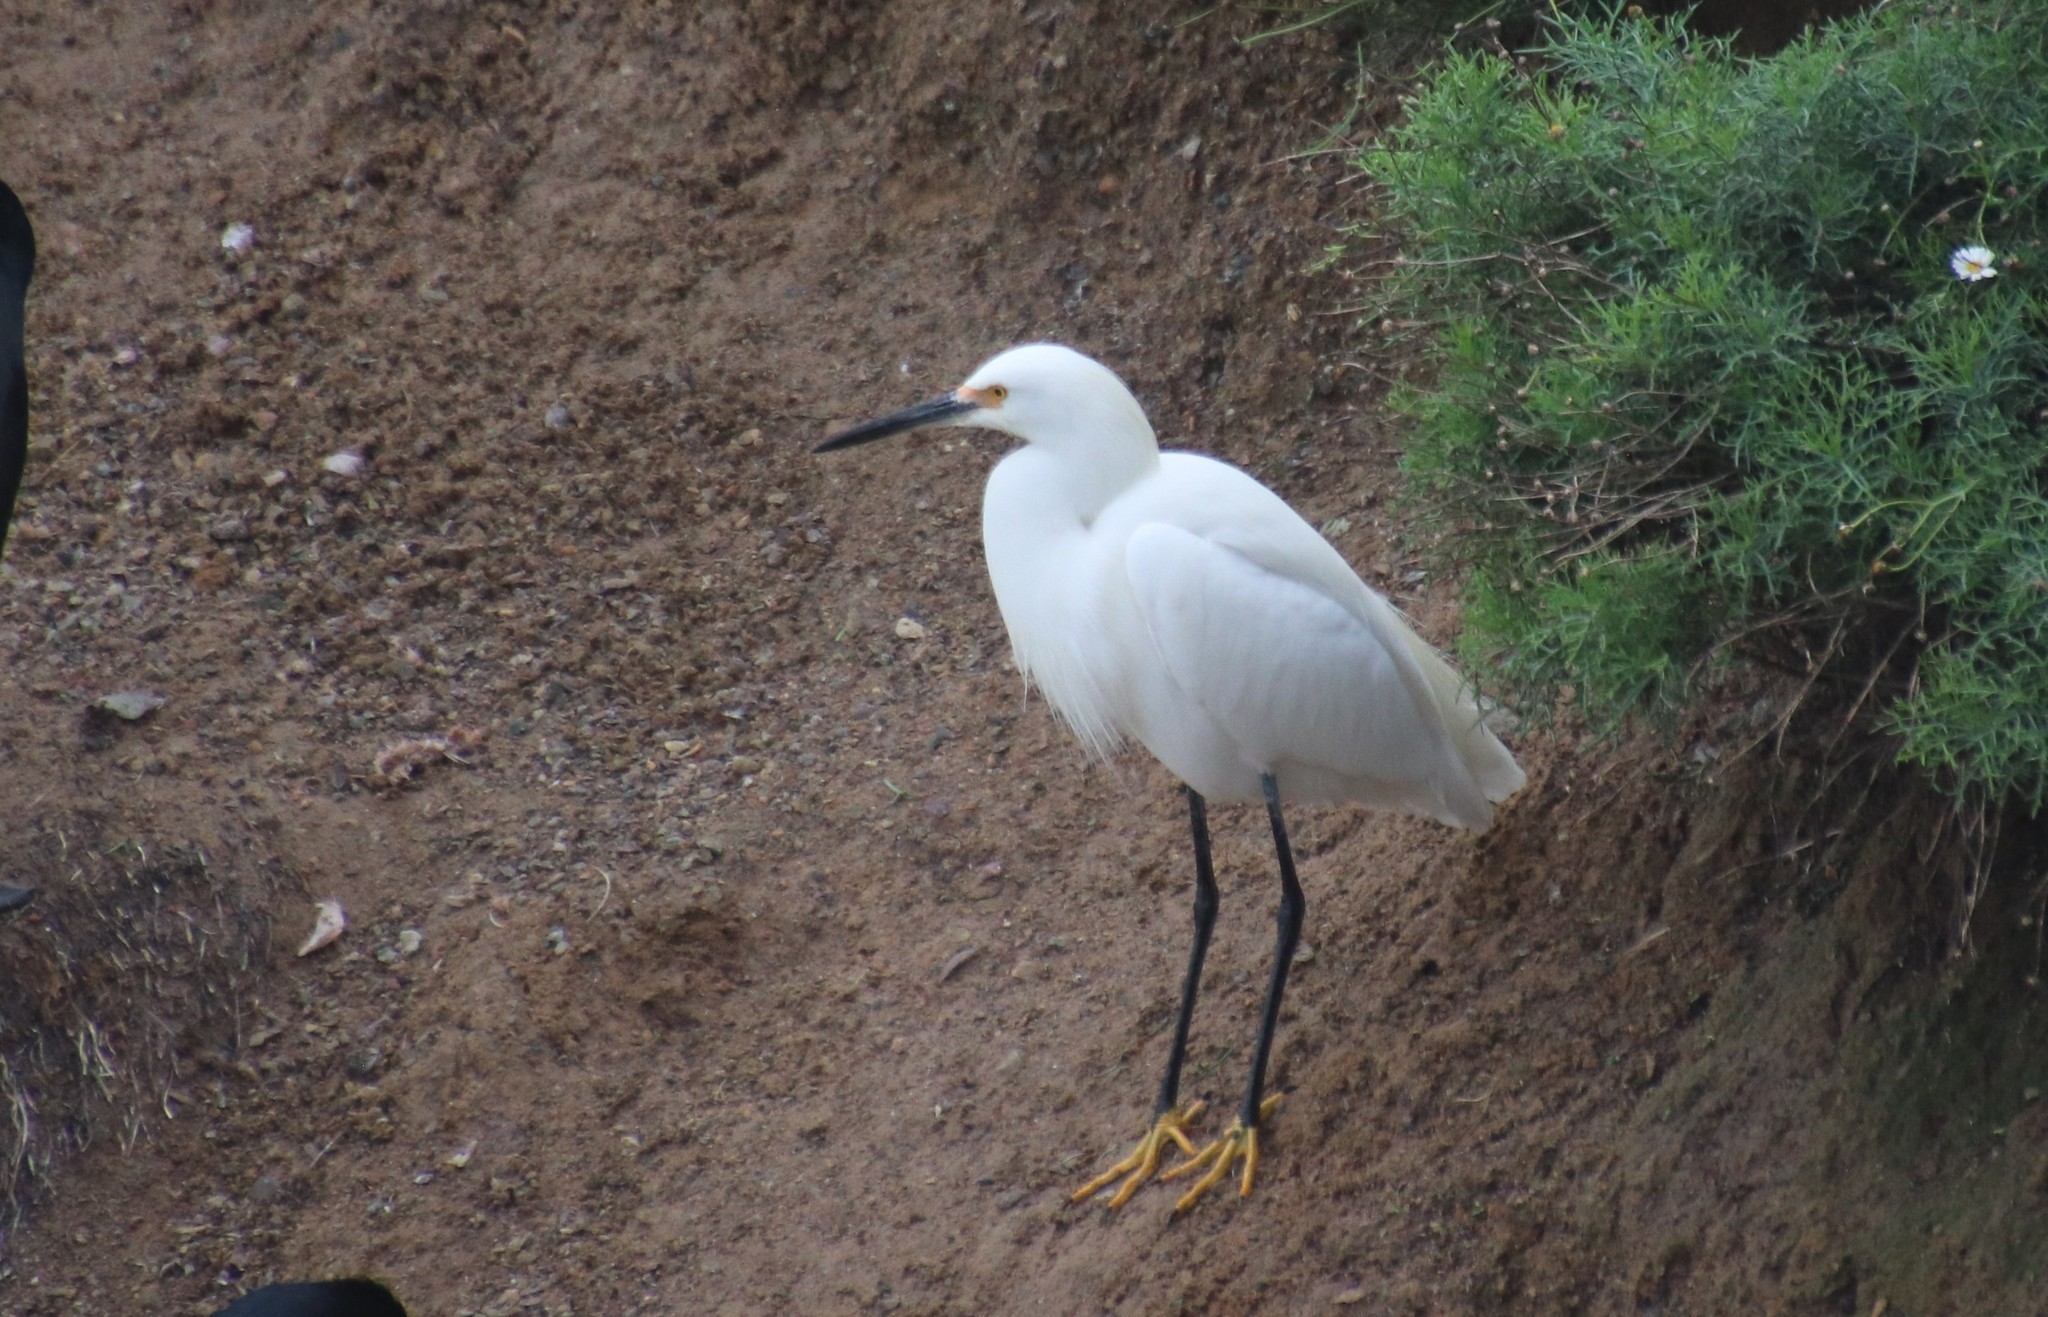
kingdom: Animalia
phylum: Chordata
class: Aves
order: Pelecaniformes
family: Ardeidae
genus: Egretta
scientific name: Egretta thula
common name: Snowy egret
